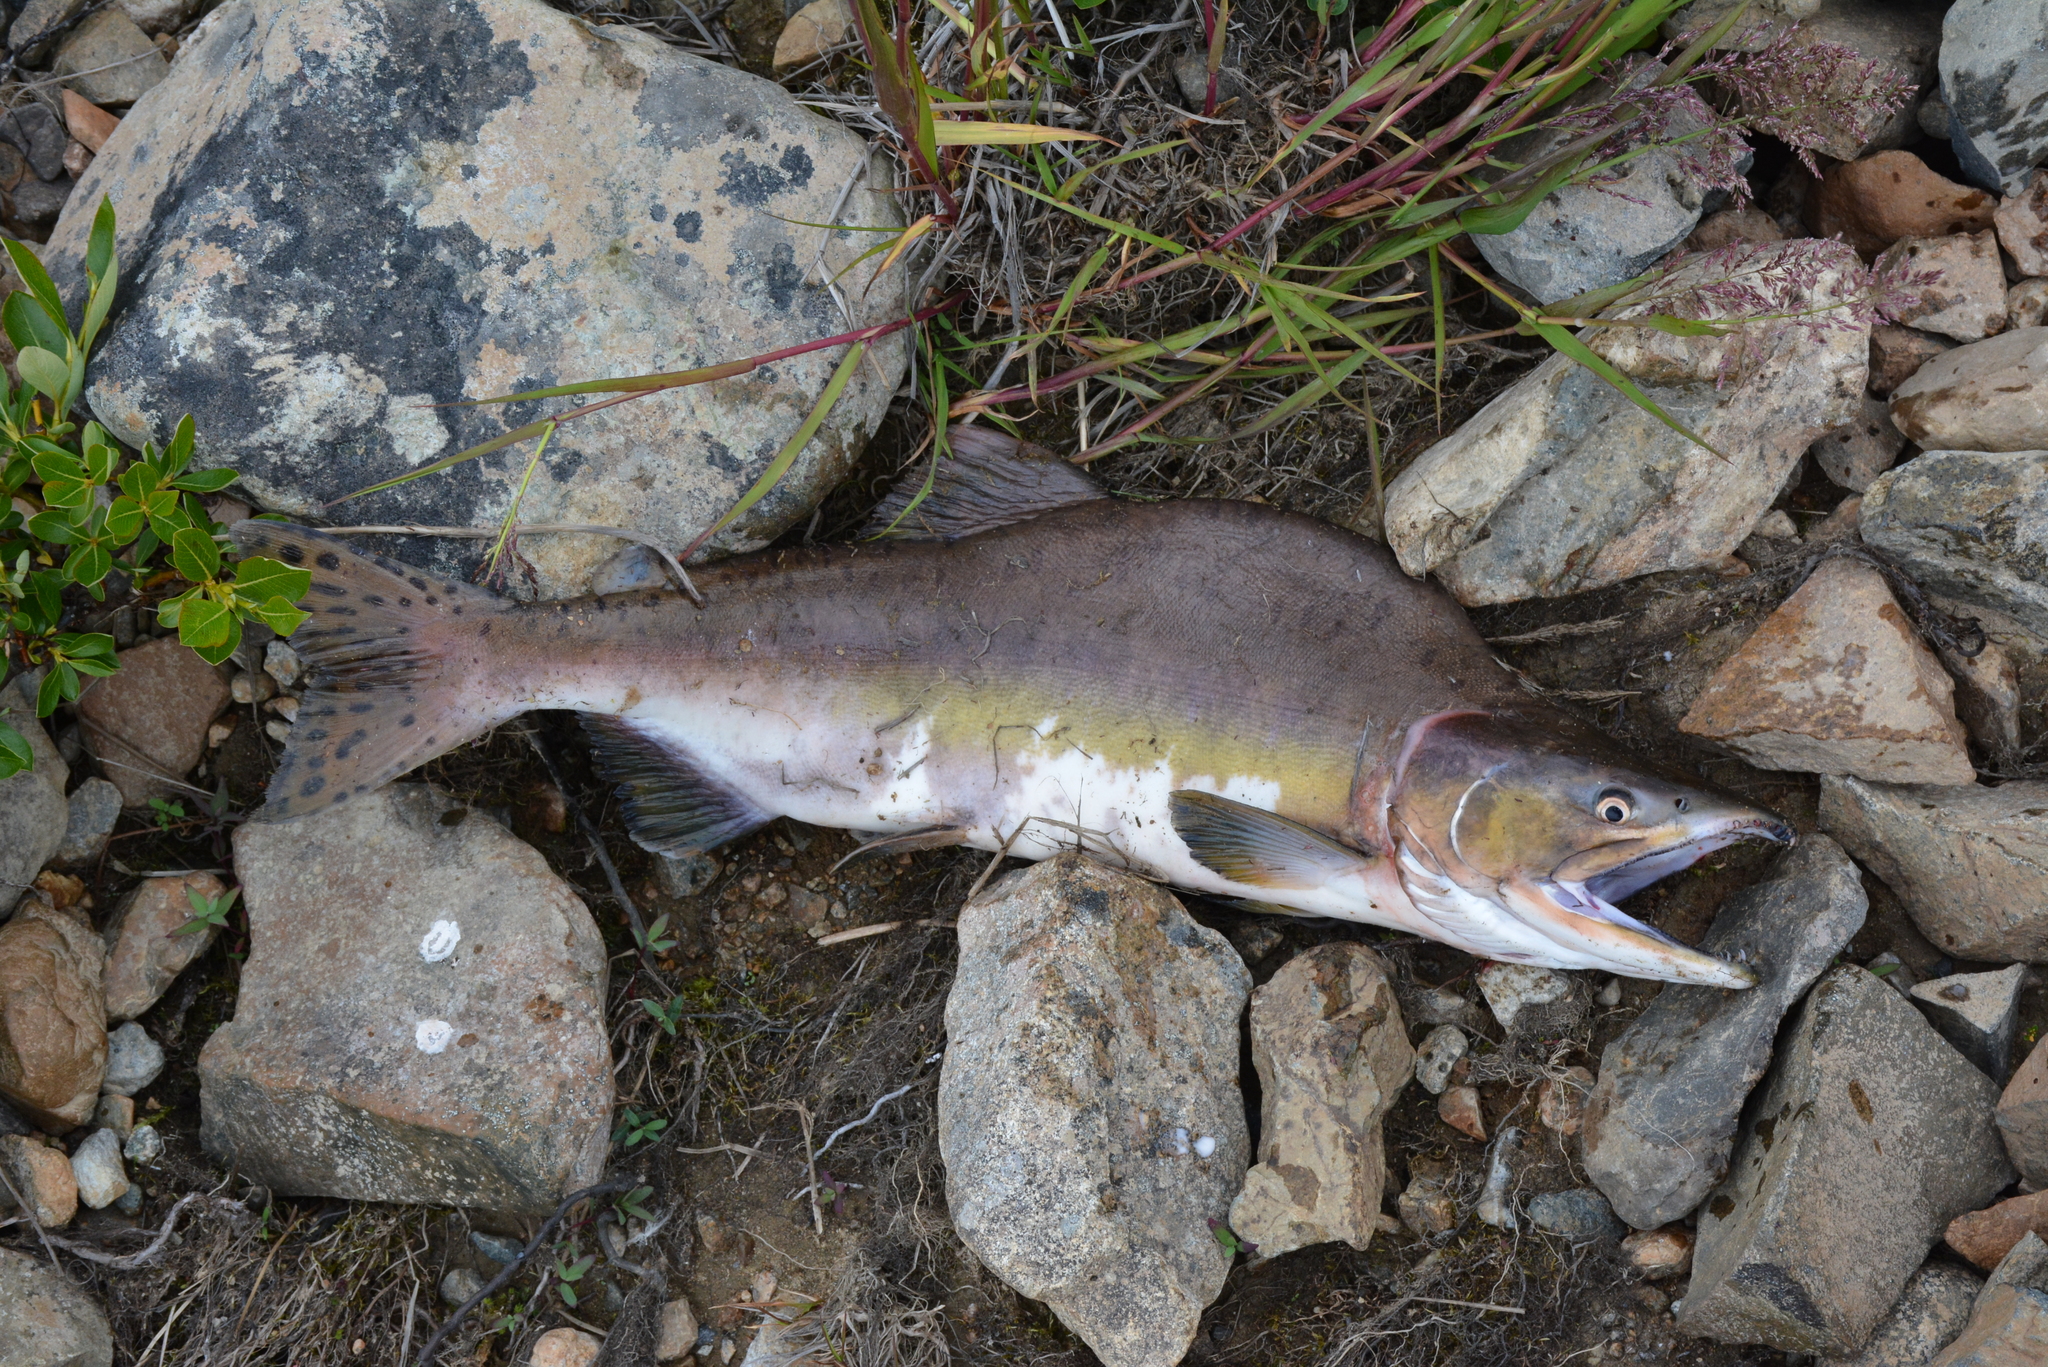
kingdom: Animalia
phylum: Chordata
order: Salmoniformes
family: Salmonidae
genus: Oncorhynchus
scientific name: Oncorhynchus gorbuscha
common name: Humpback salmon
